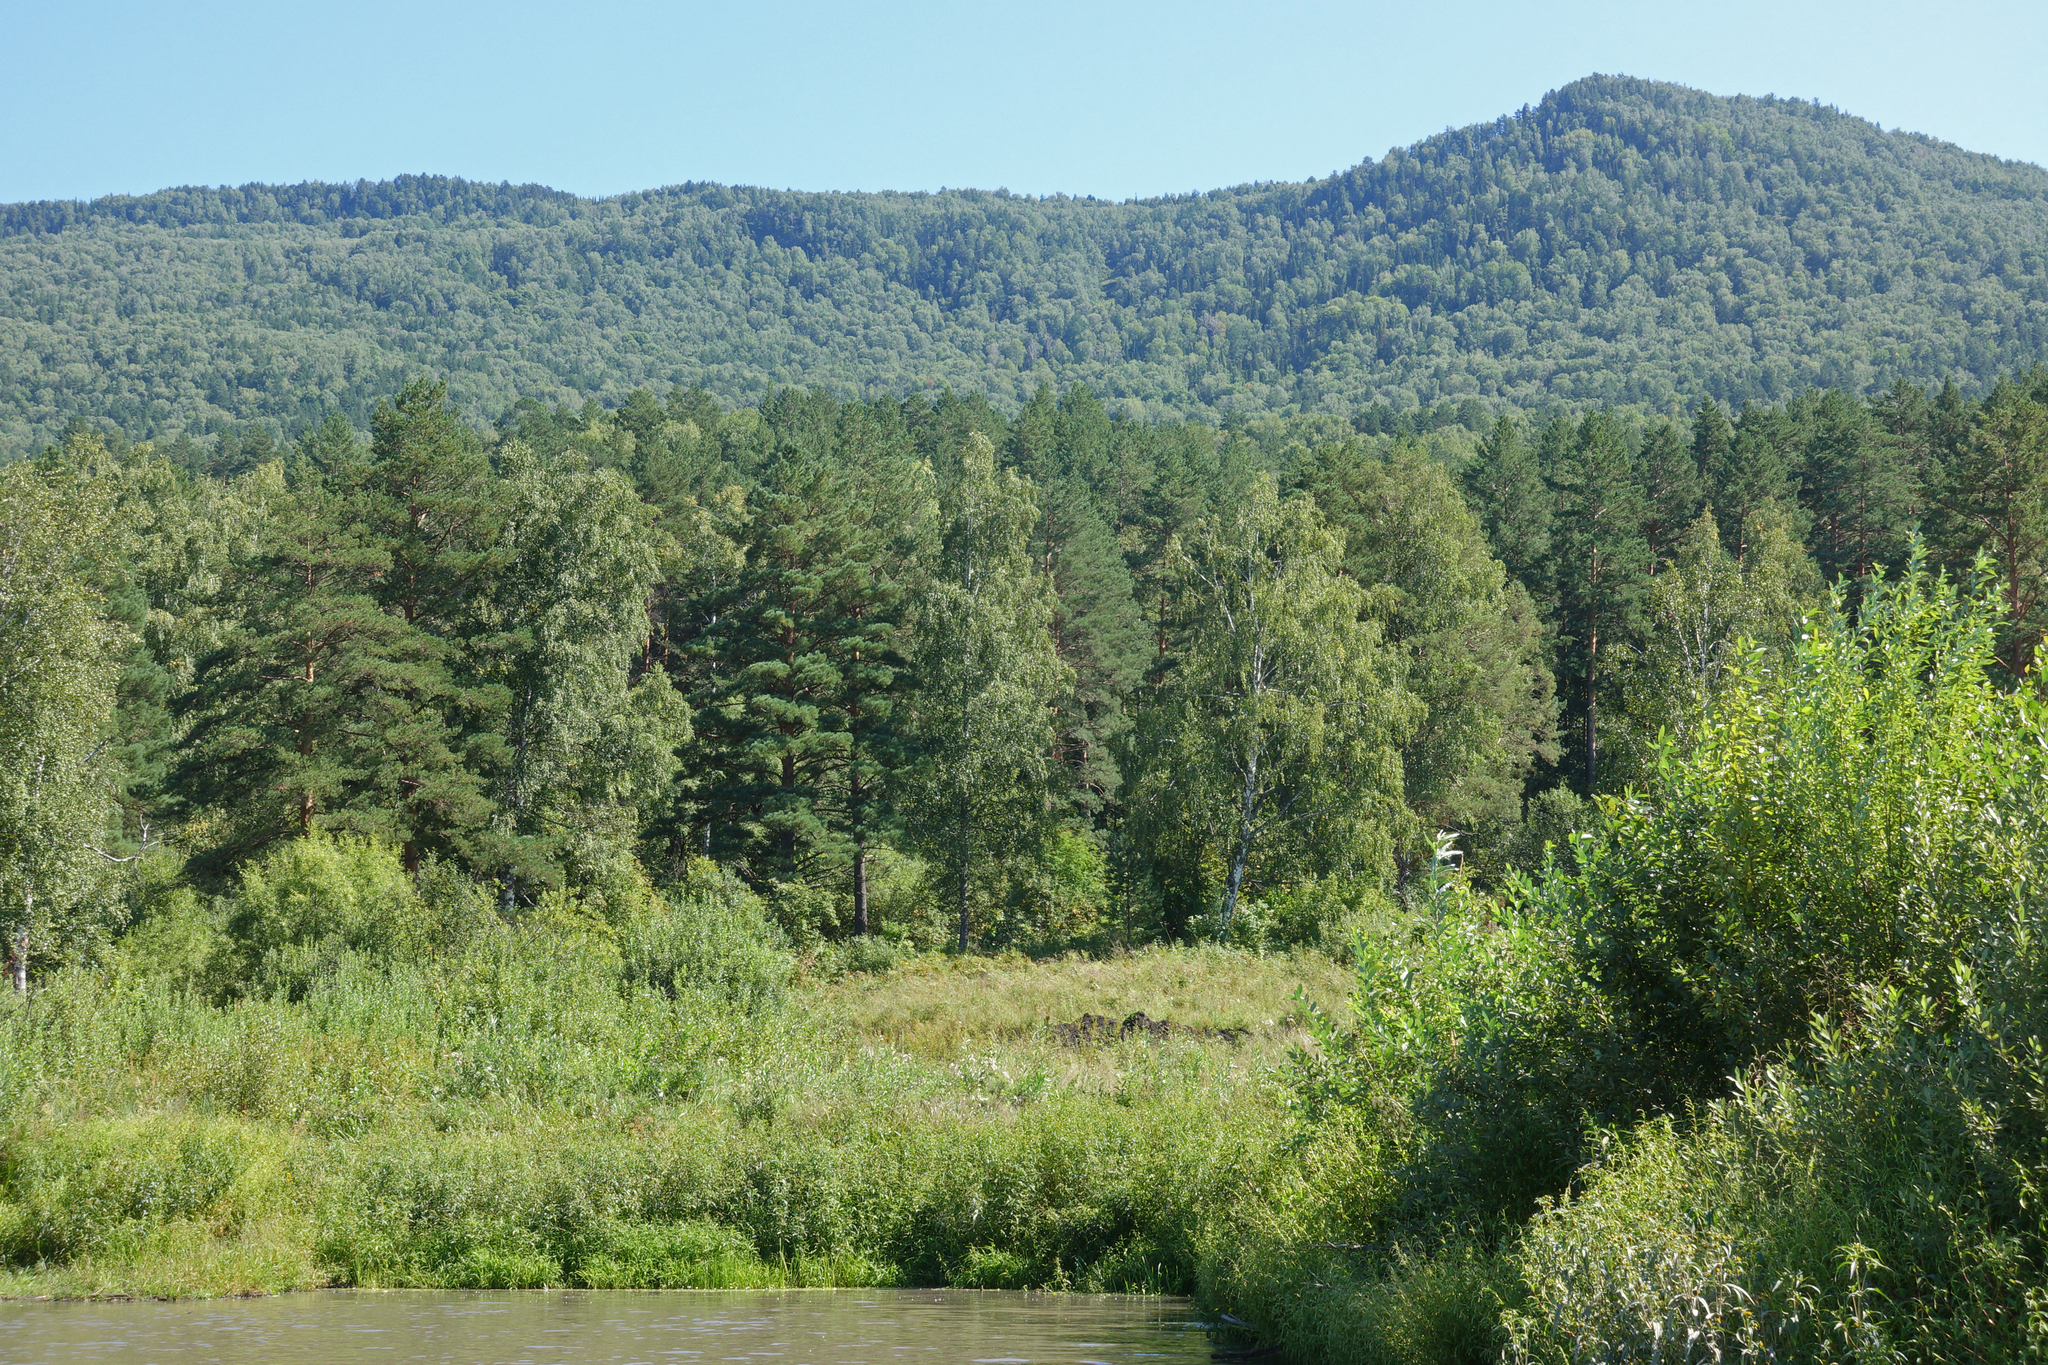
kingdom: Plantae
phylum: Tracheophyta
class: Pinopsida
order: Pinales
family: Pinaceae
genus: Pinus
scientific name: Pinus sylvestris
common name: Scots pine
